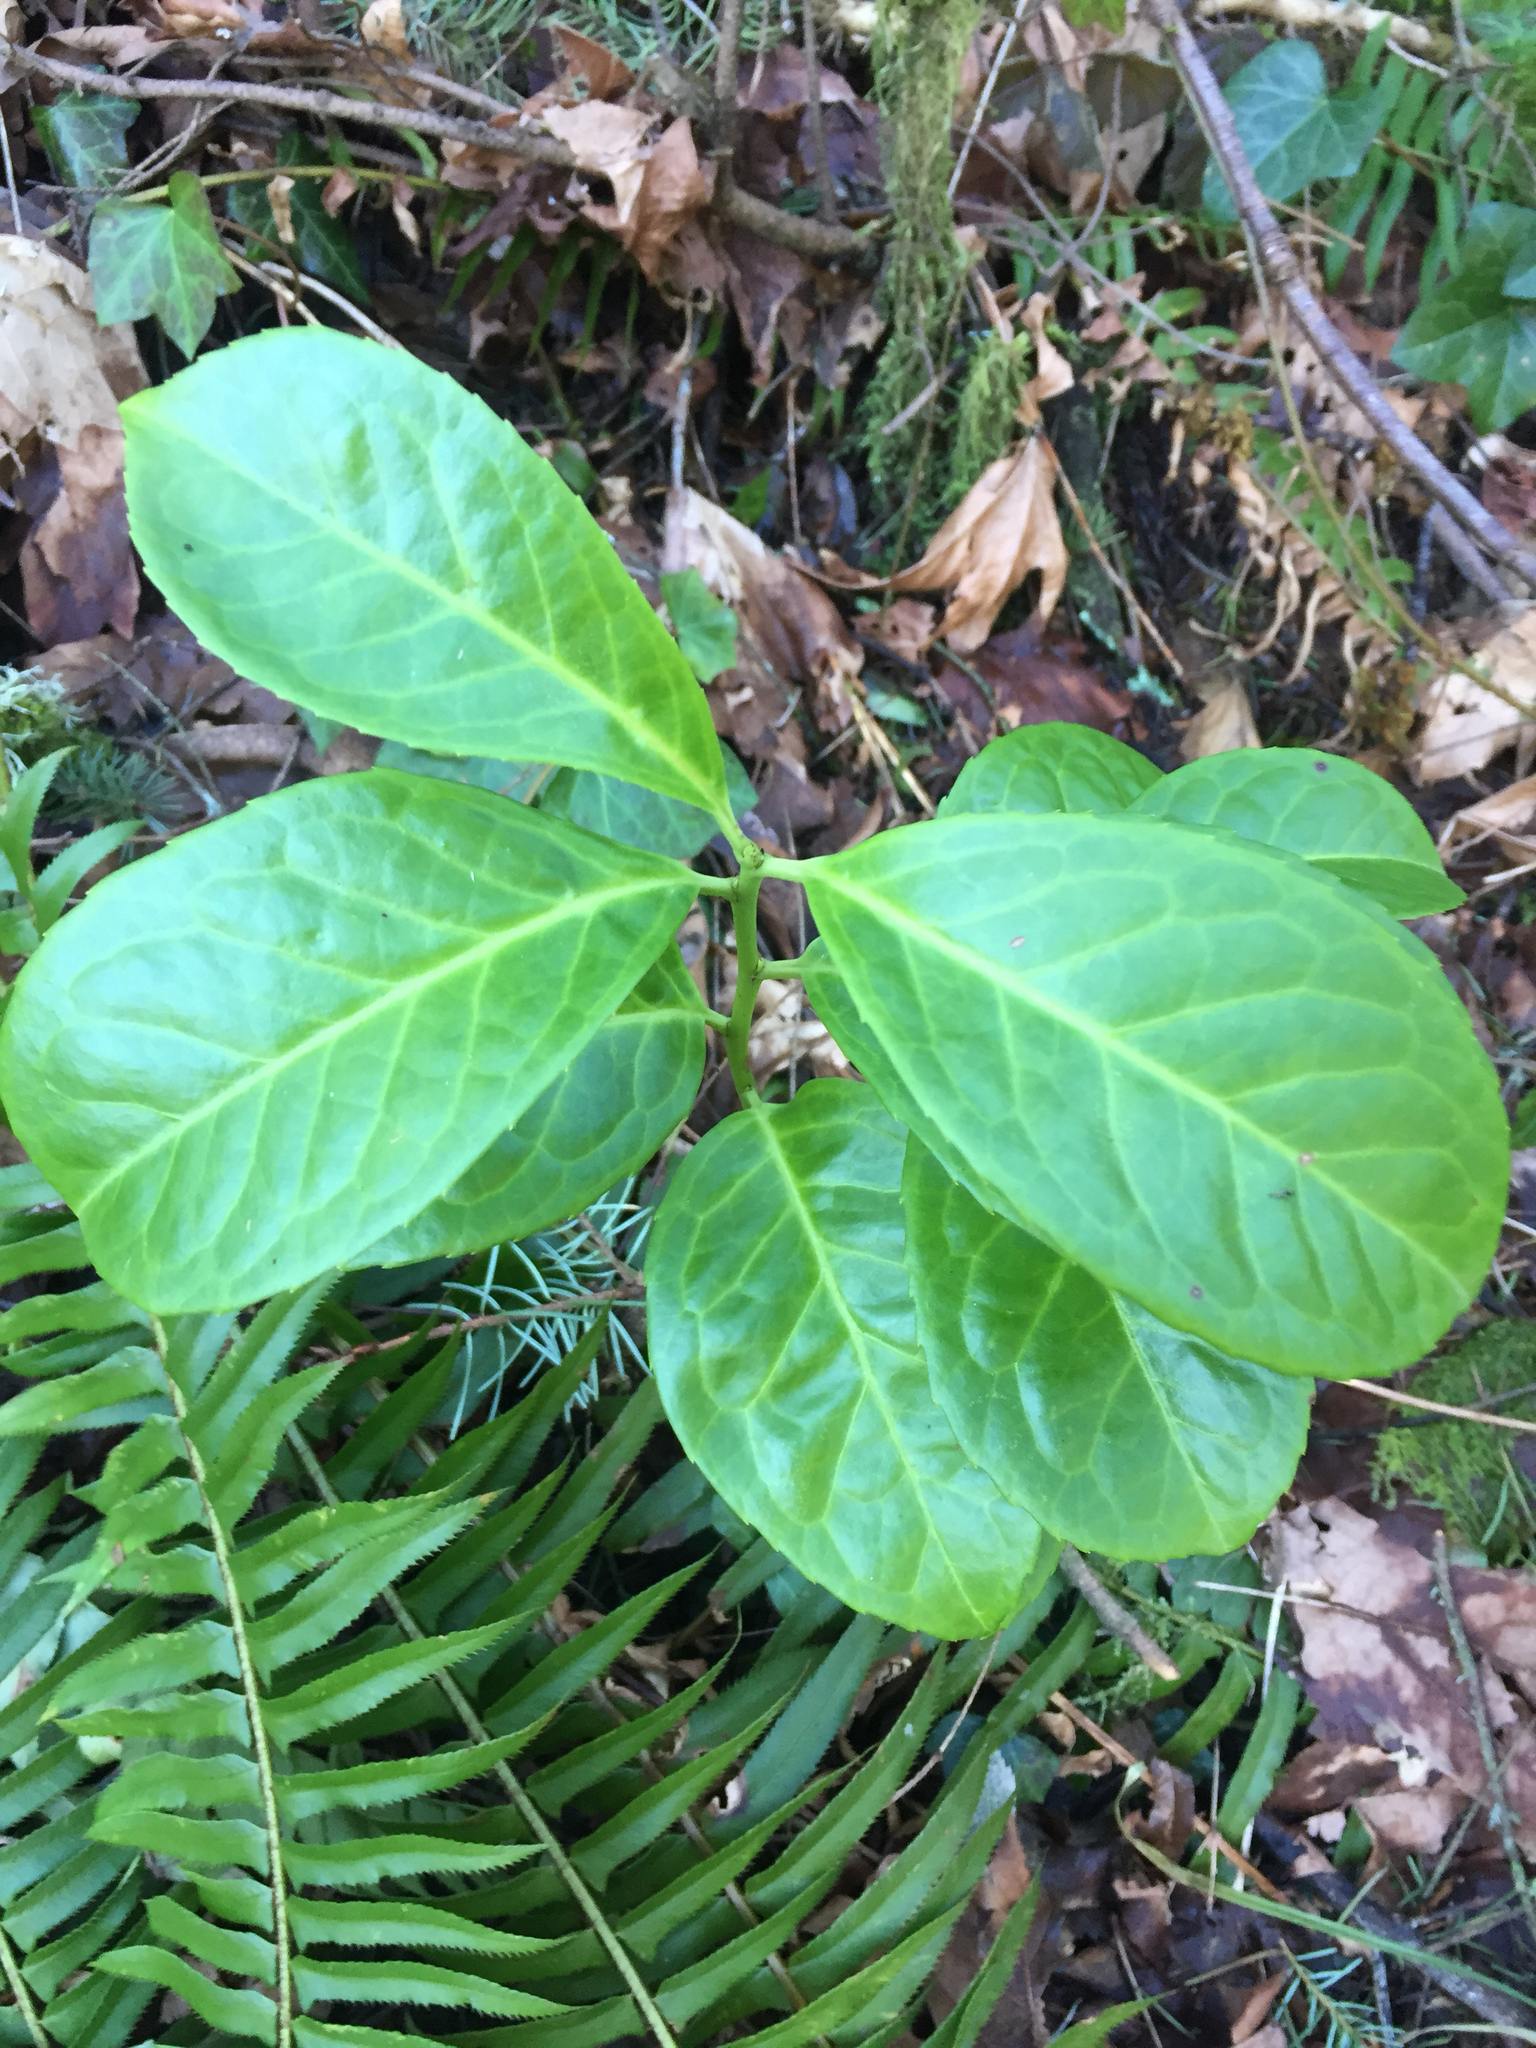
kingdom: Plantae
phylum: Tracheophyta
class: Magnoliopsida
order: Rosales
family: Rosaceae
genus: Prunus
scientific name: Prunus laurocerasus
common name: Cherry laurel
